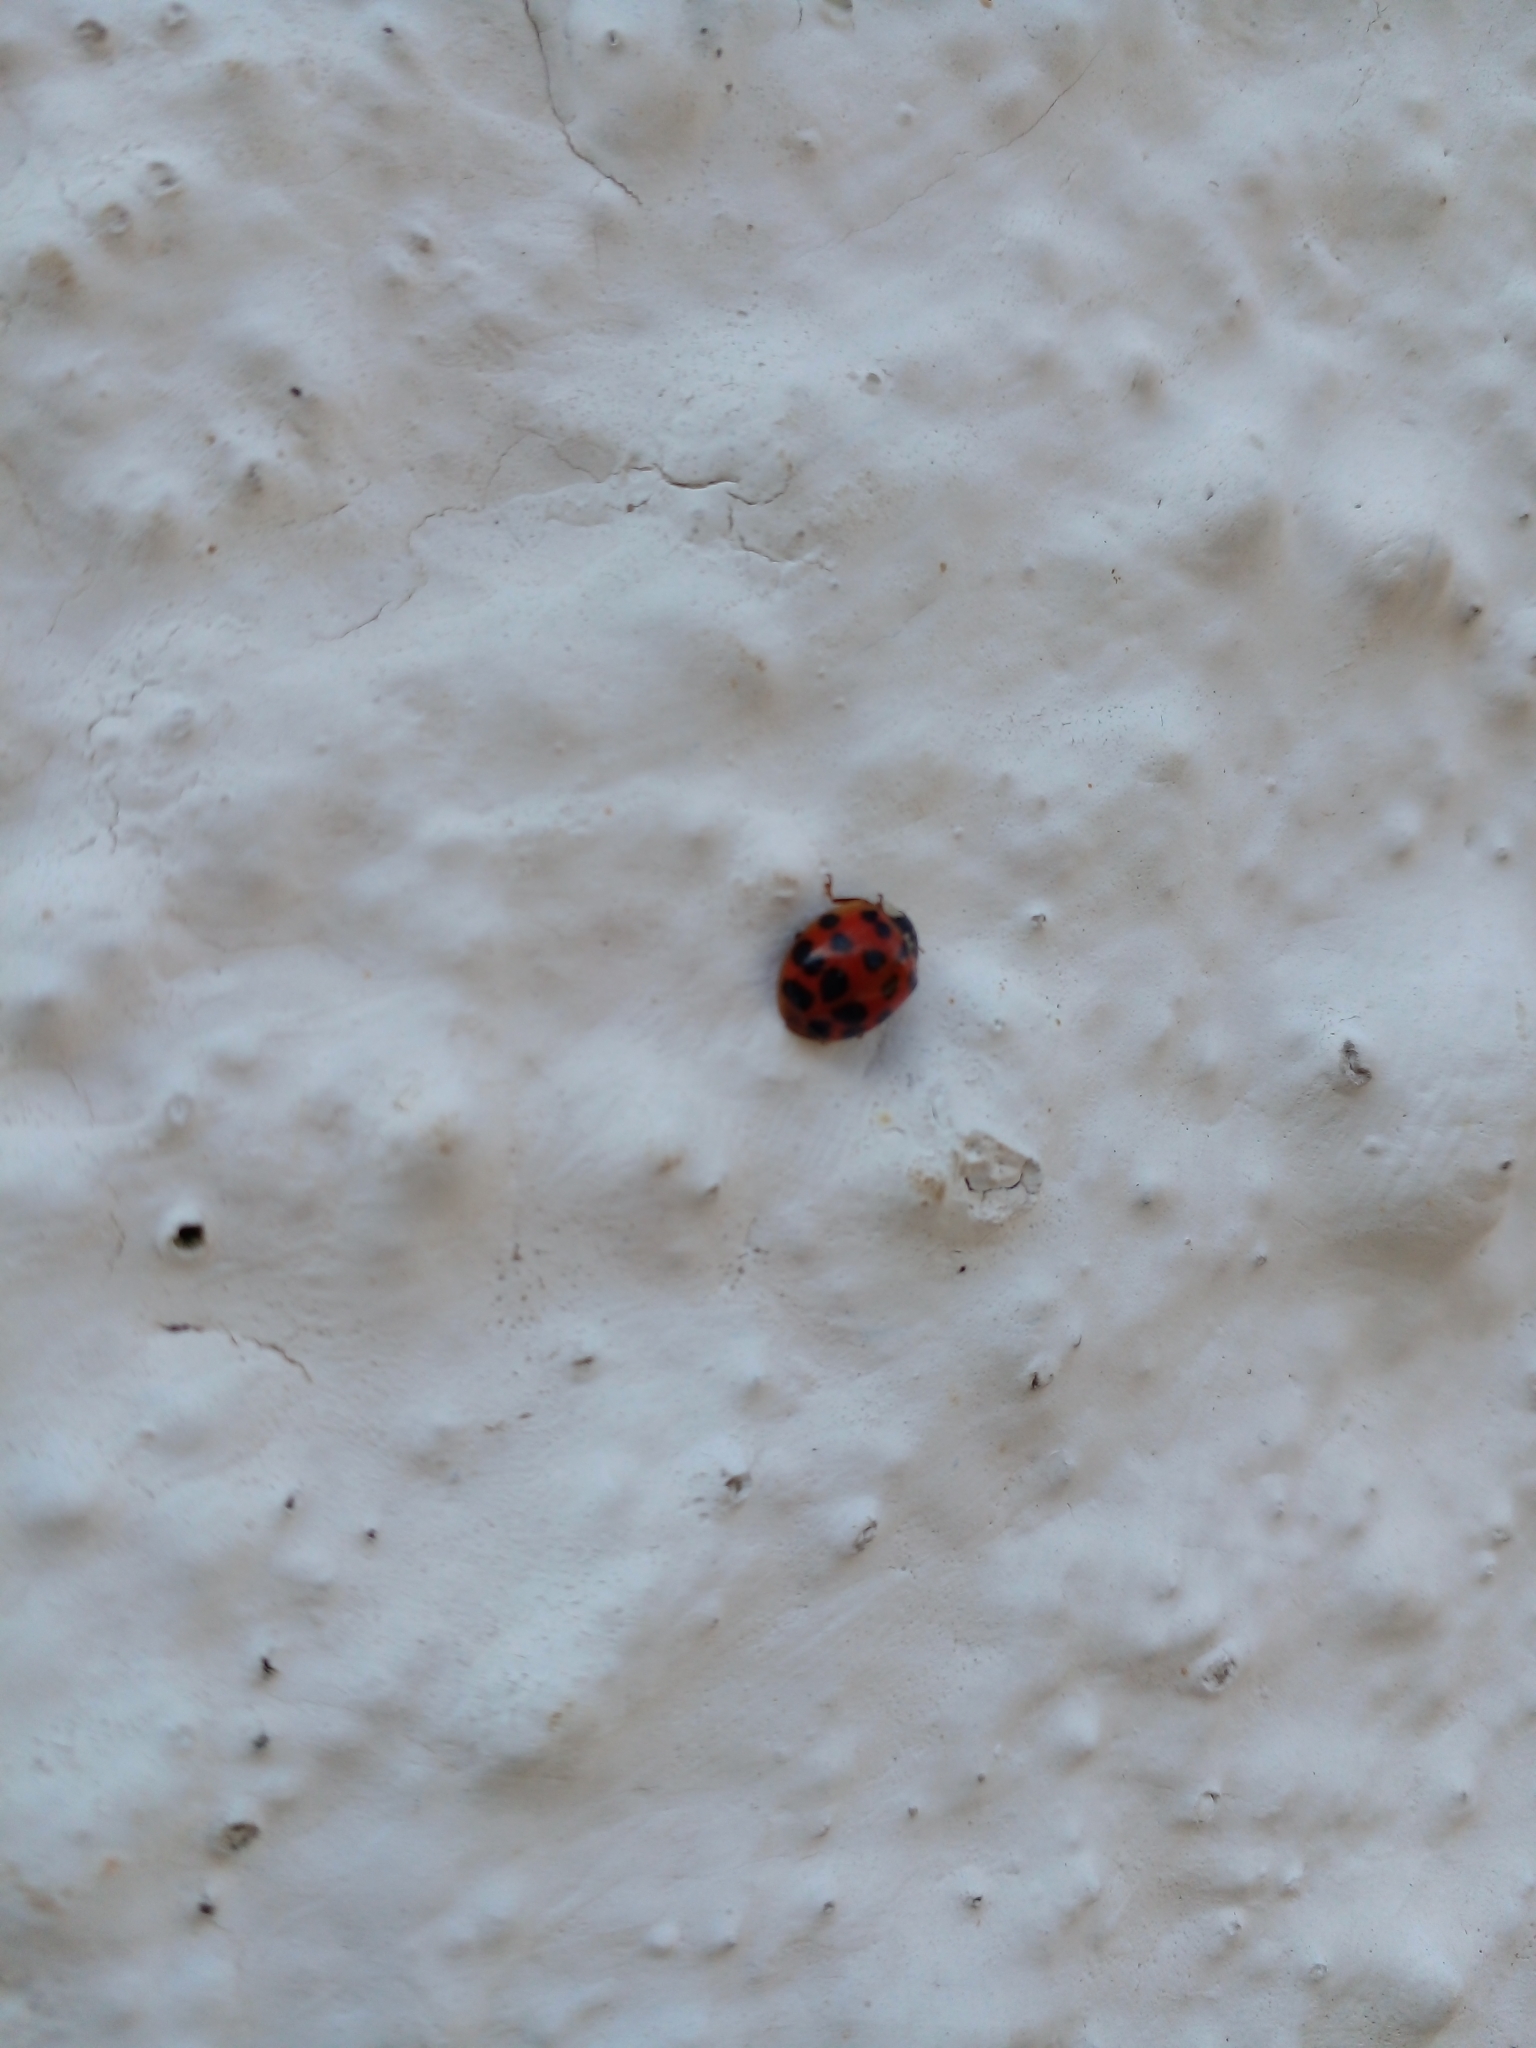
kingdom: Animalia
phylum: Arthropoda
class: Insecta
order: Coleoptera
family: Coccinellidae
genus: Harmonia
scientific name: Harmonia axyridis
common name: Harlequin ladybird
